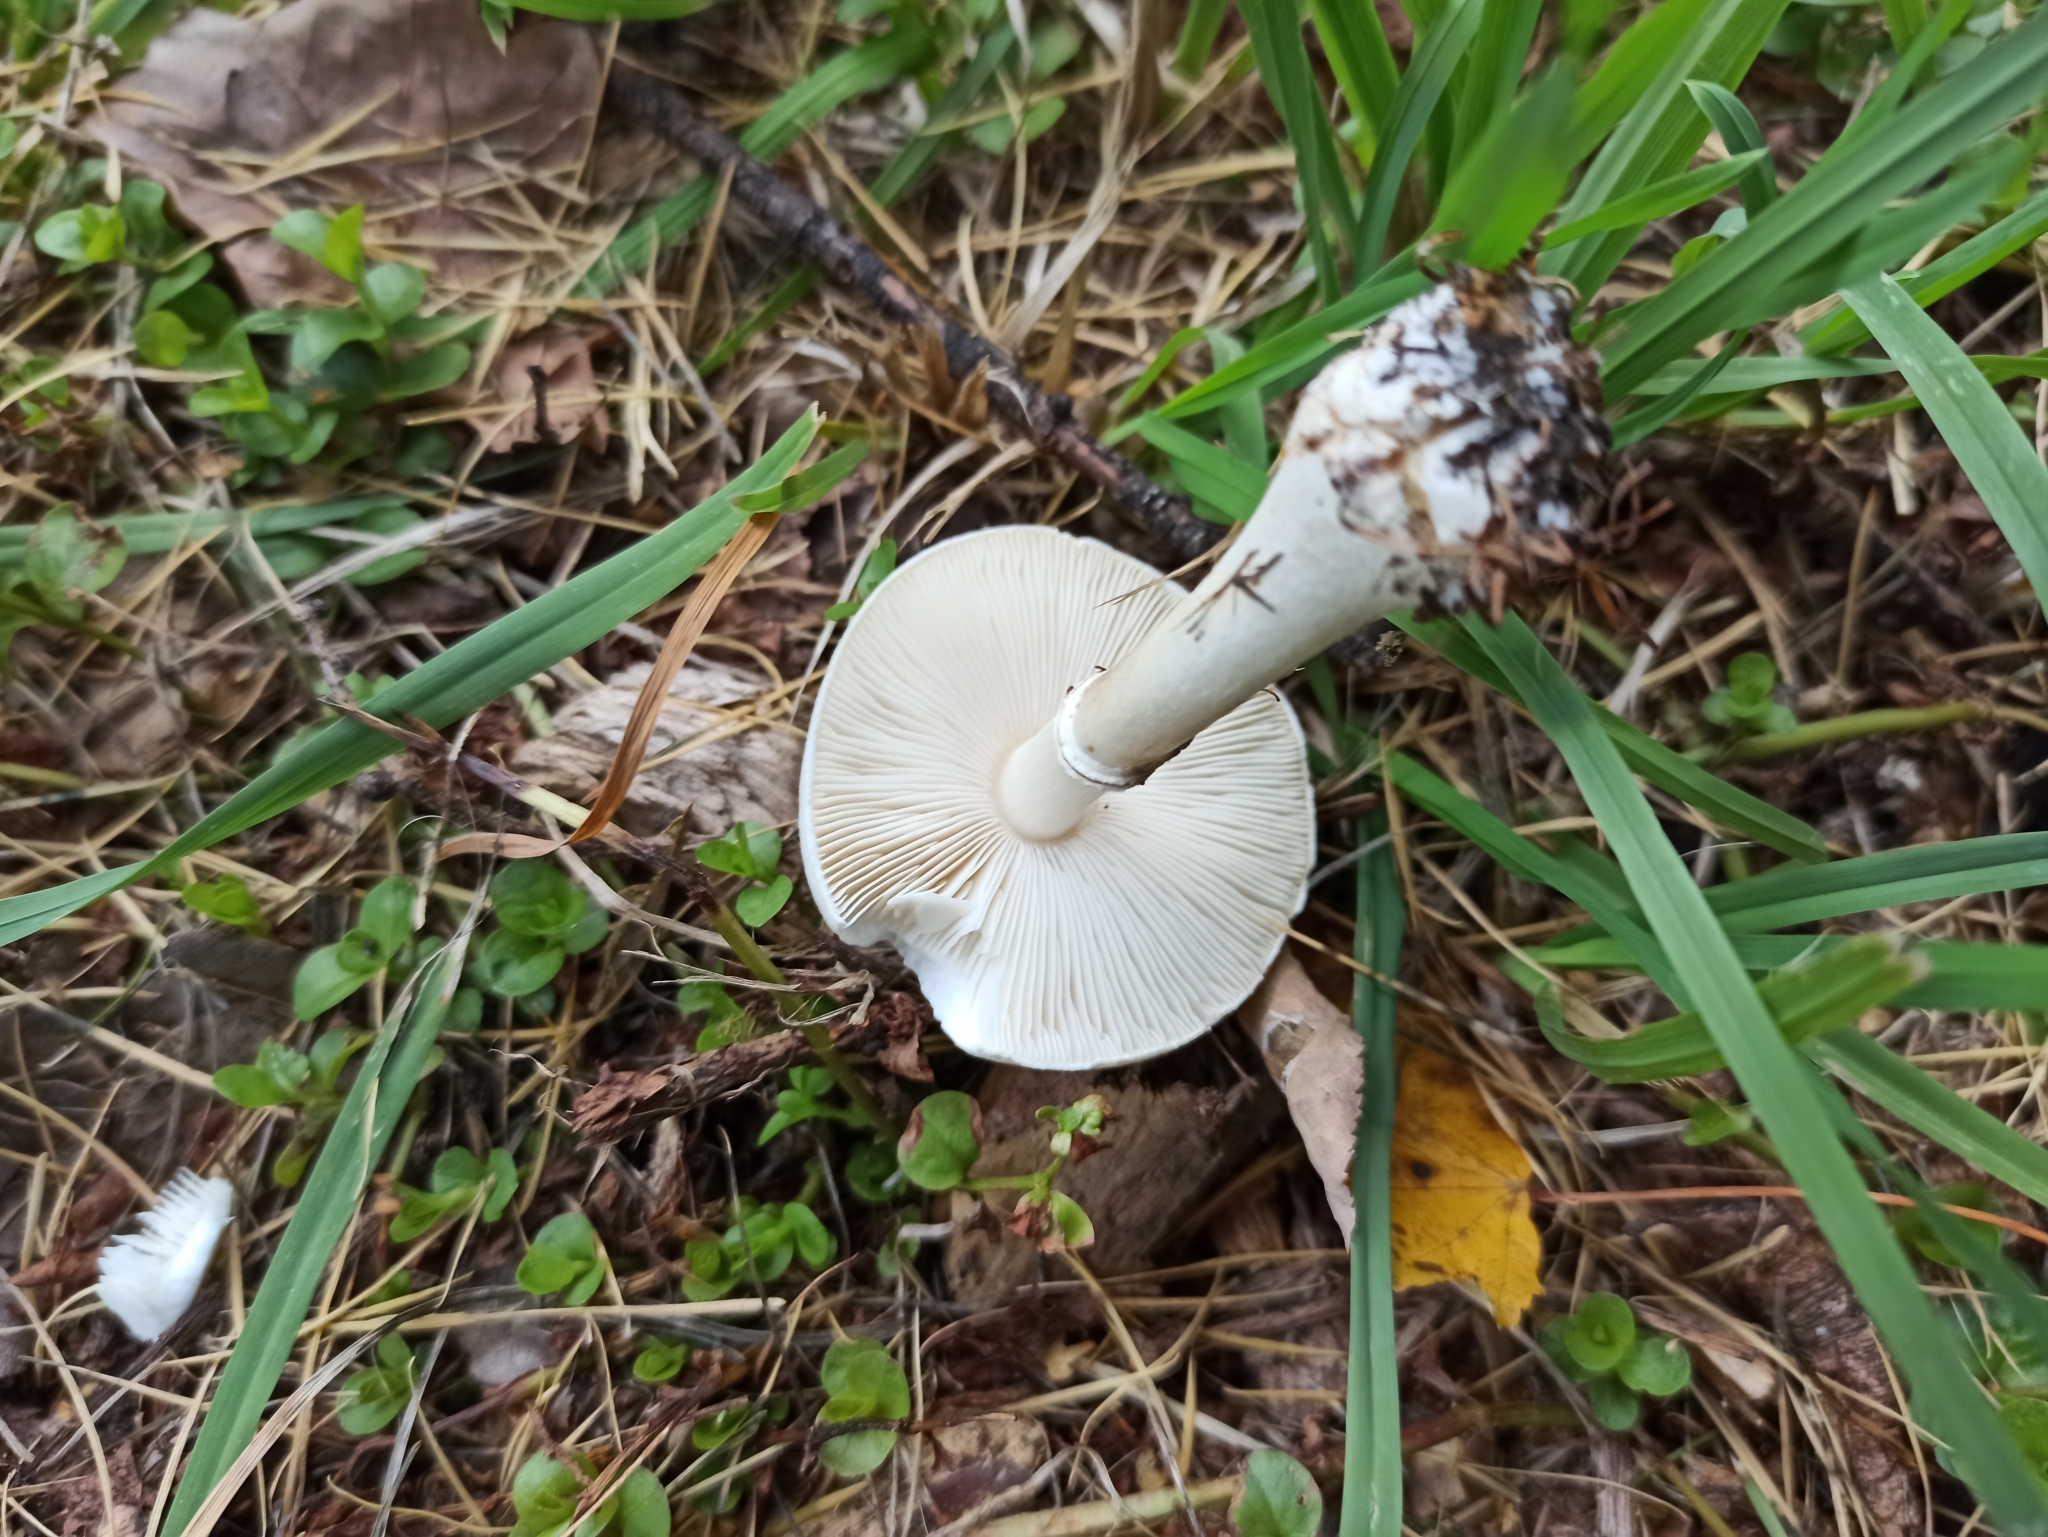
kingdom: Fungi
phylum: Basidiomycota
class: Agaricomycetes
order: Agaricales
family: Agaricaceae
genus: Leucoagaricus
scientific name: Leucoagaricus leucothites
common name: White dapperling
